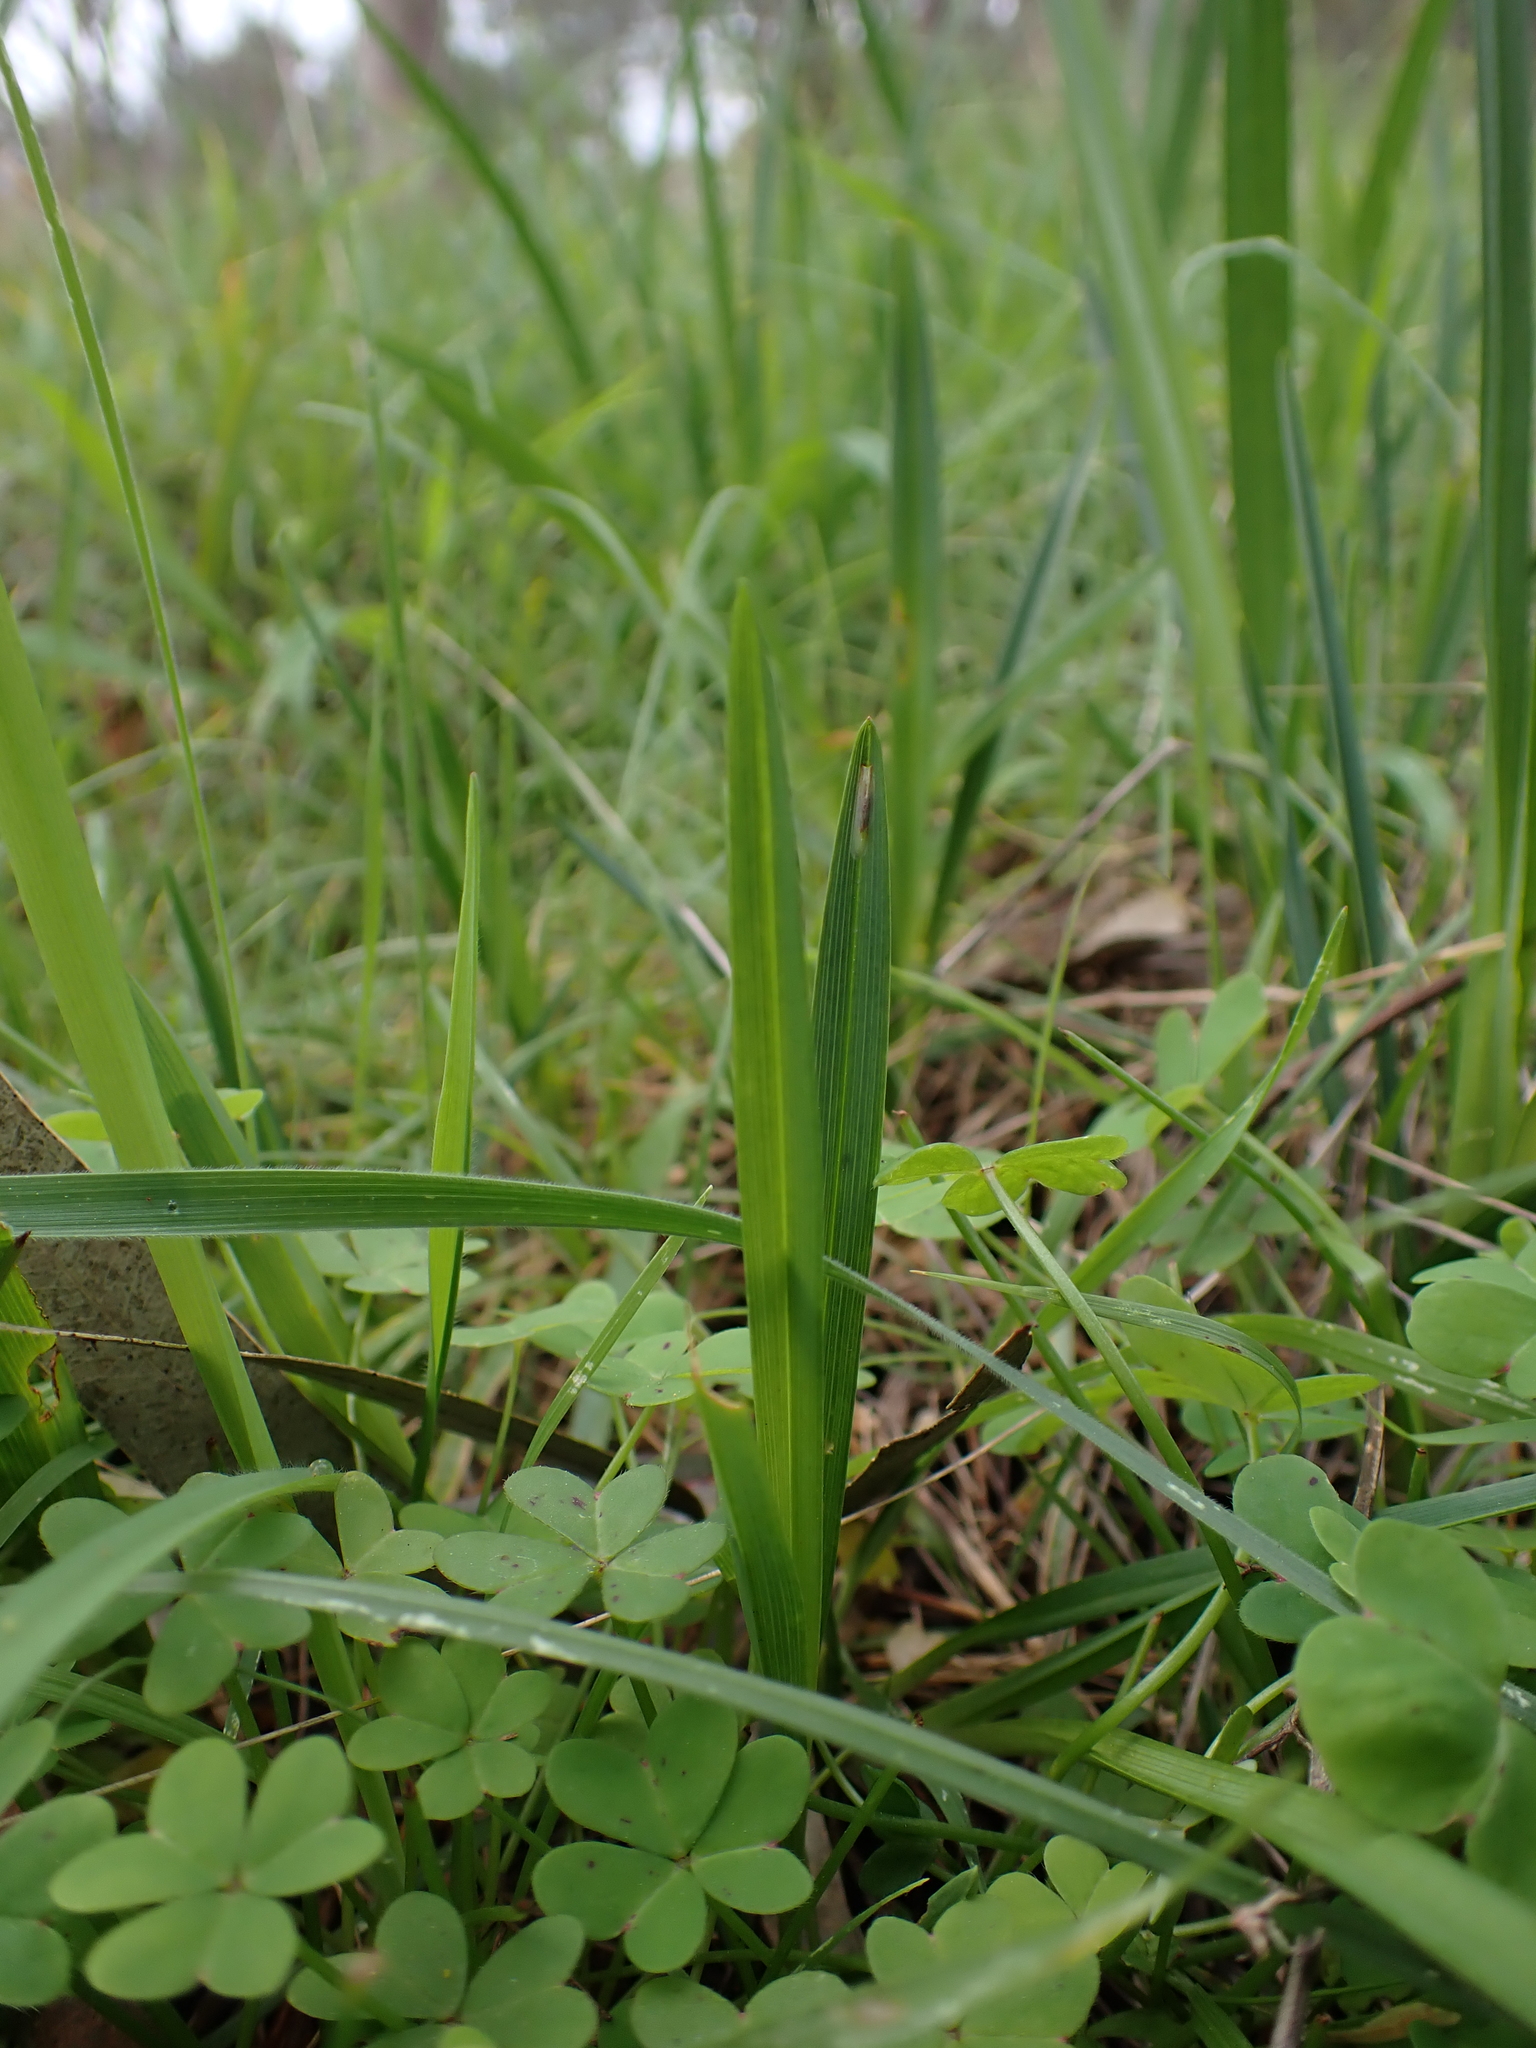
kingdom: Plantae
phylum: Tracheophyta
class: Liliopsida
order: Asparagales
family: Asphodelaceae
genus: Dianella
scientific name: Dianella amoena
